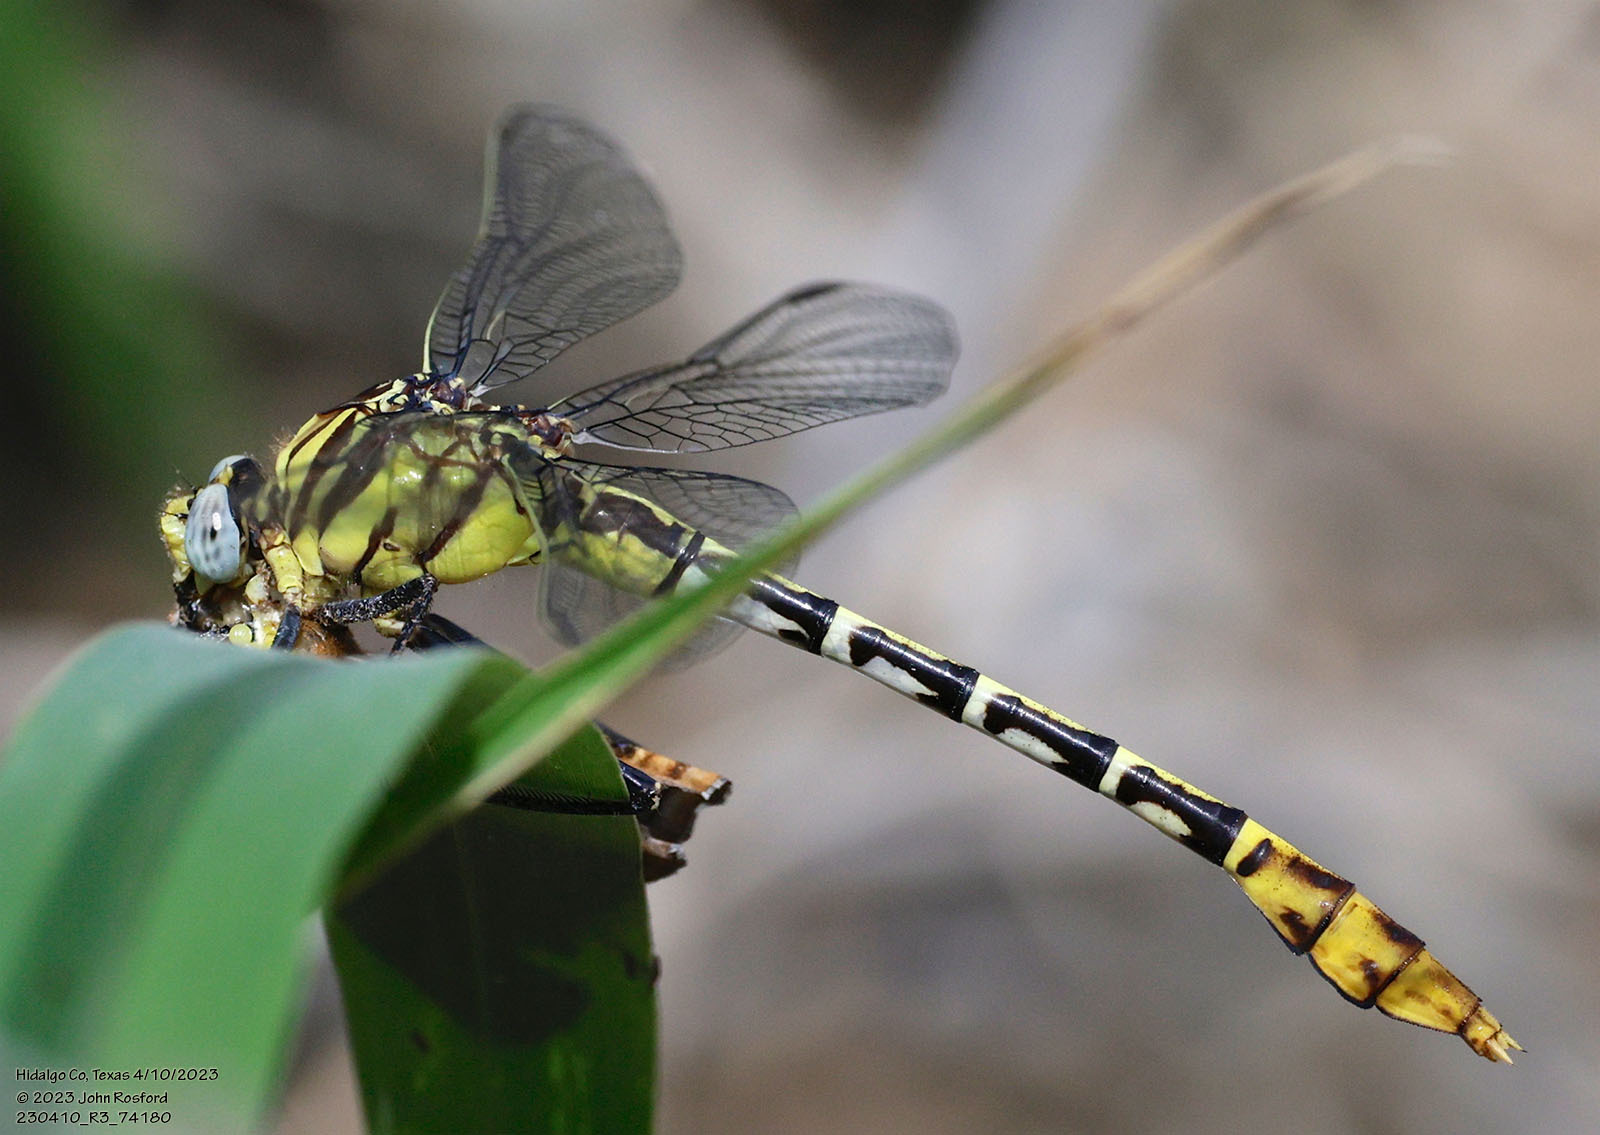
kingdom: Animalia
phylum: Arthropoda
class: Insecta
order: Odonata
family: Gomphidae
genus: Dromogomphus
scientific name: Dromogomphus spoliatus
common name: Flag-tailed spinyleg
